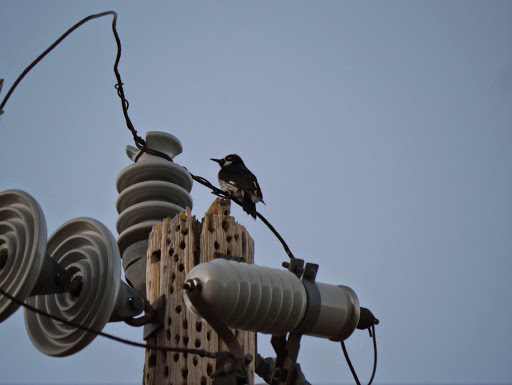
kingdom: Animalia
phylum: Chordata
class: Aves
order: Piciformes
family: Picidae
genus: Melanerpes
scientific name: Melanerpes formicivorus
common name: Acorn woodpecker
